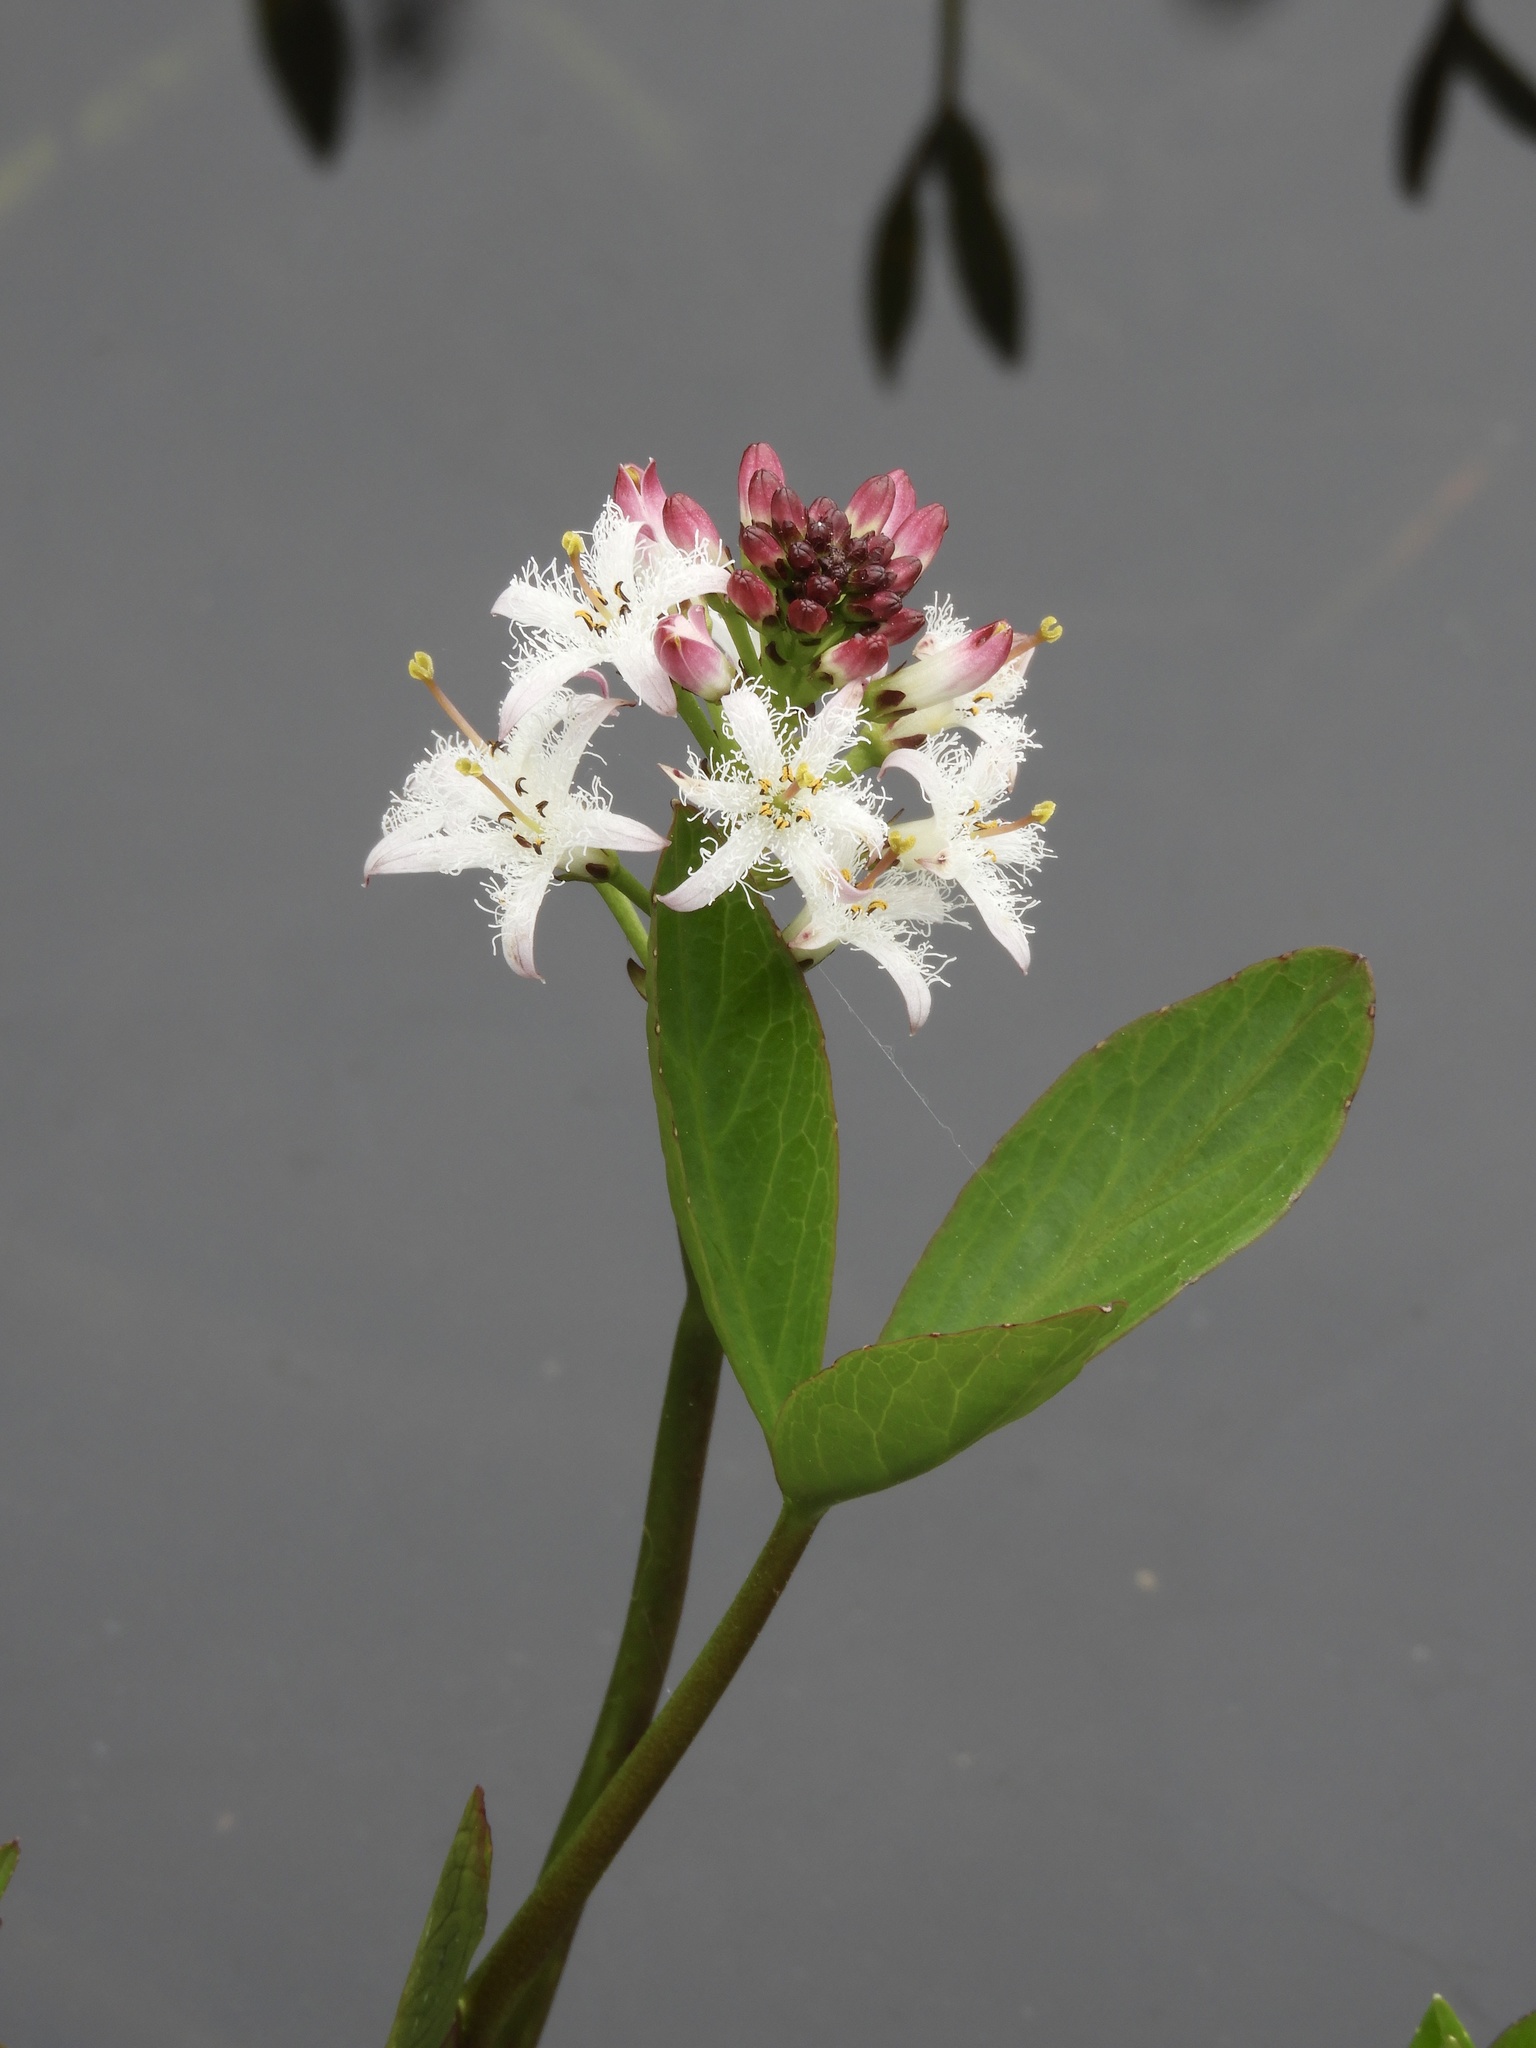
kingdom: Plantae
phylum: Tracheophyta
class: Magnoliopsida
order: Asterales
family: Menyanthaceae
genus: Menyanthes
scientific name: Menyanthes trifoliata
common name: Bogbean
